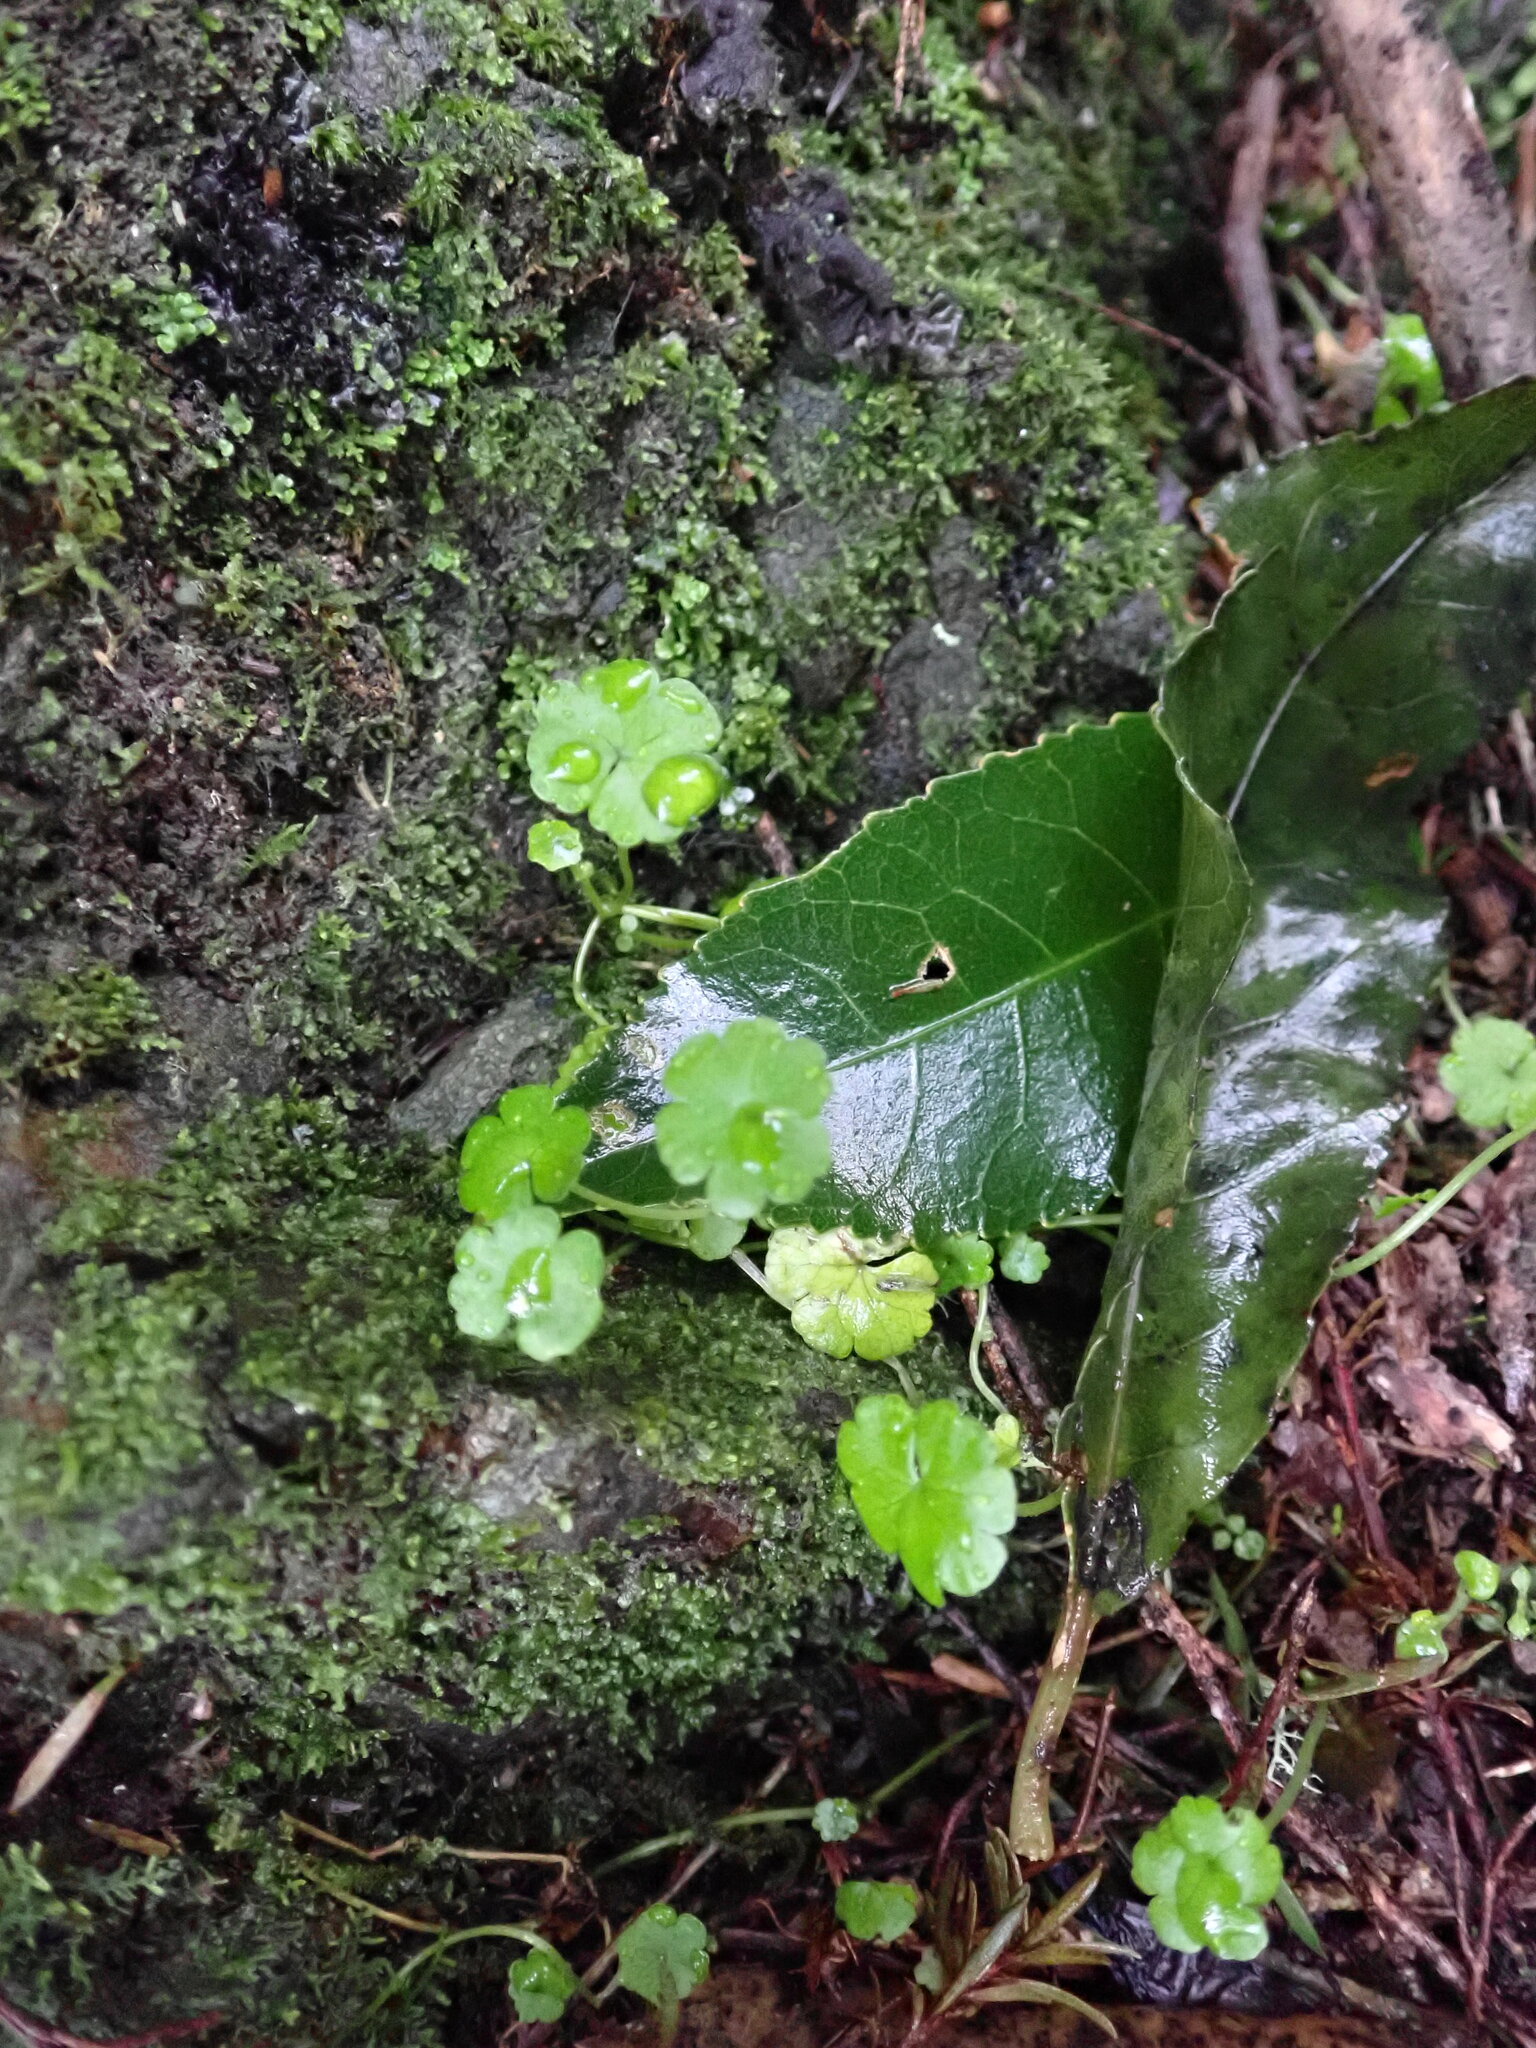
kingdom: Plantae
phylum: Tracheophyta
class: Magnoliopsida
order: Apiales
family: Araliaceae
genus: Hydrocotyle
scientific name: Hydrocotyle heteromeria
